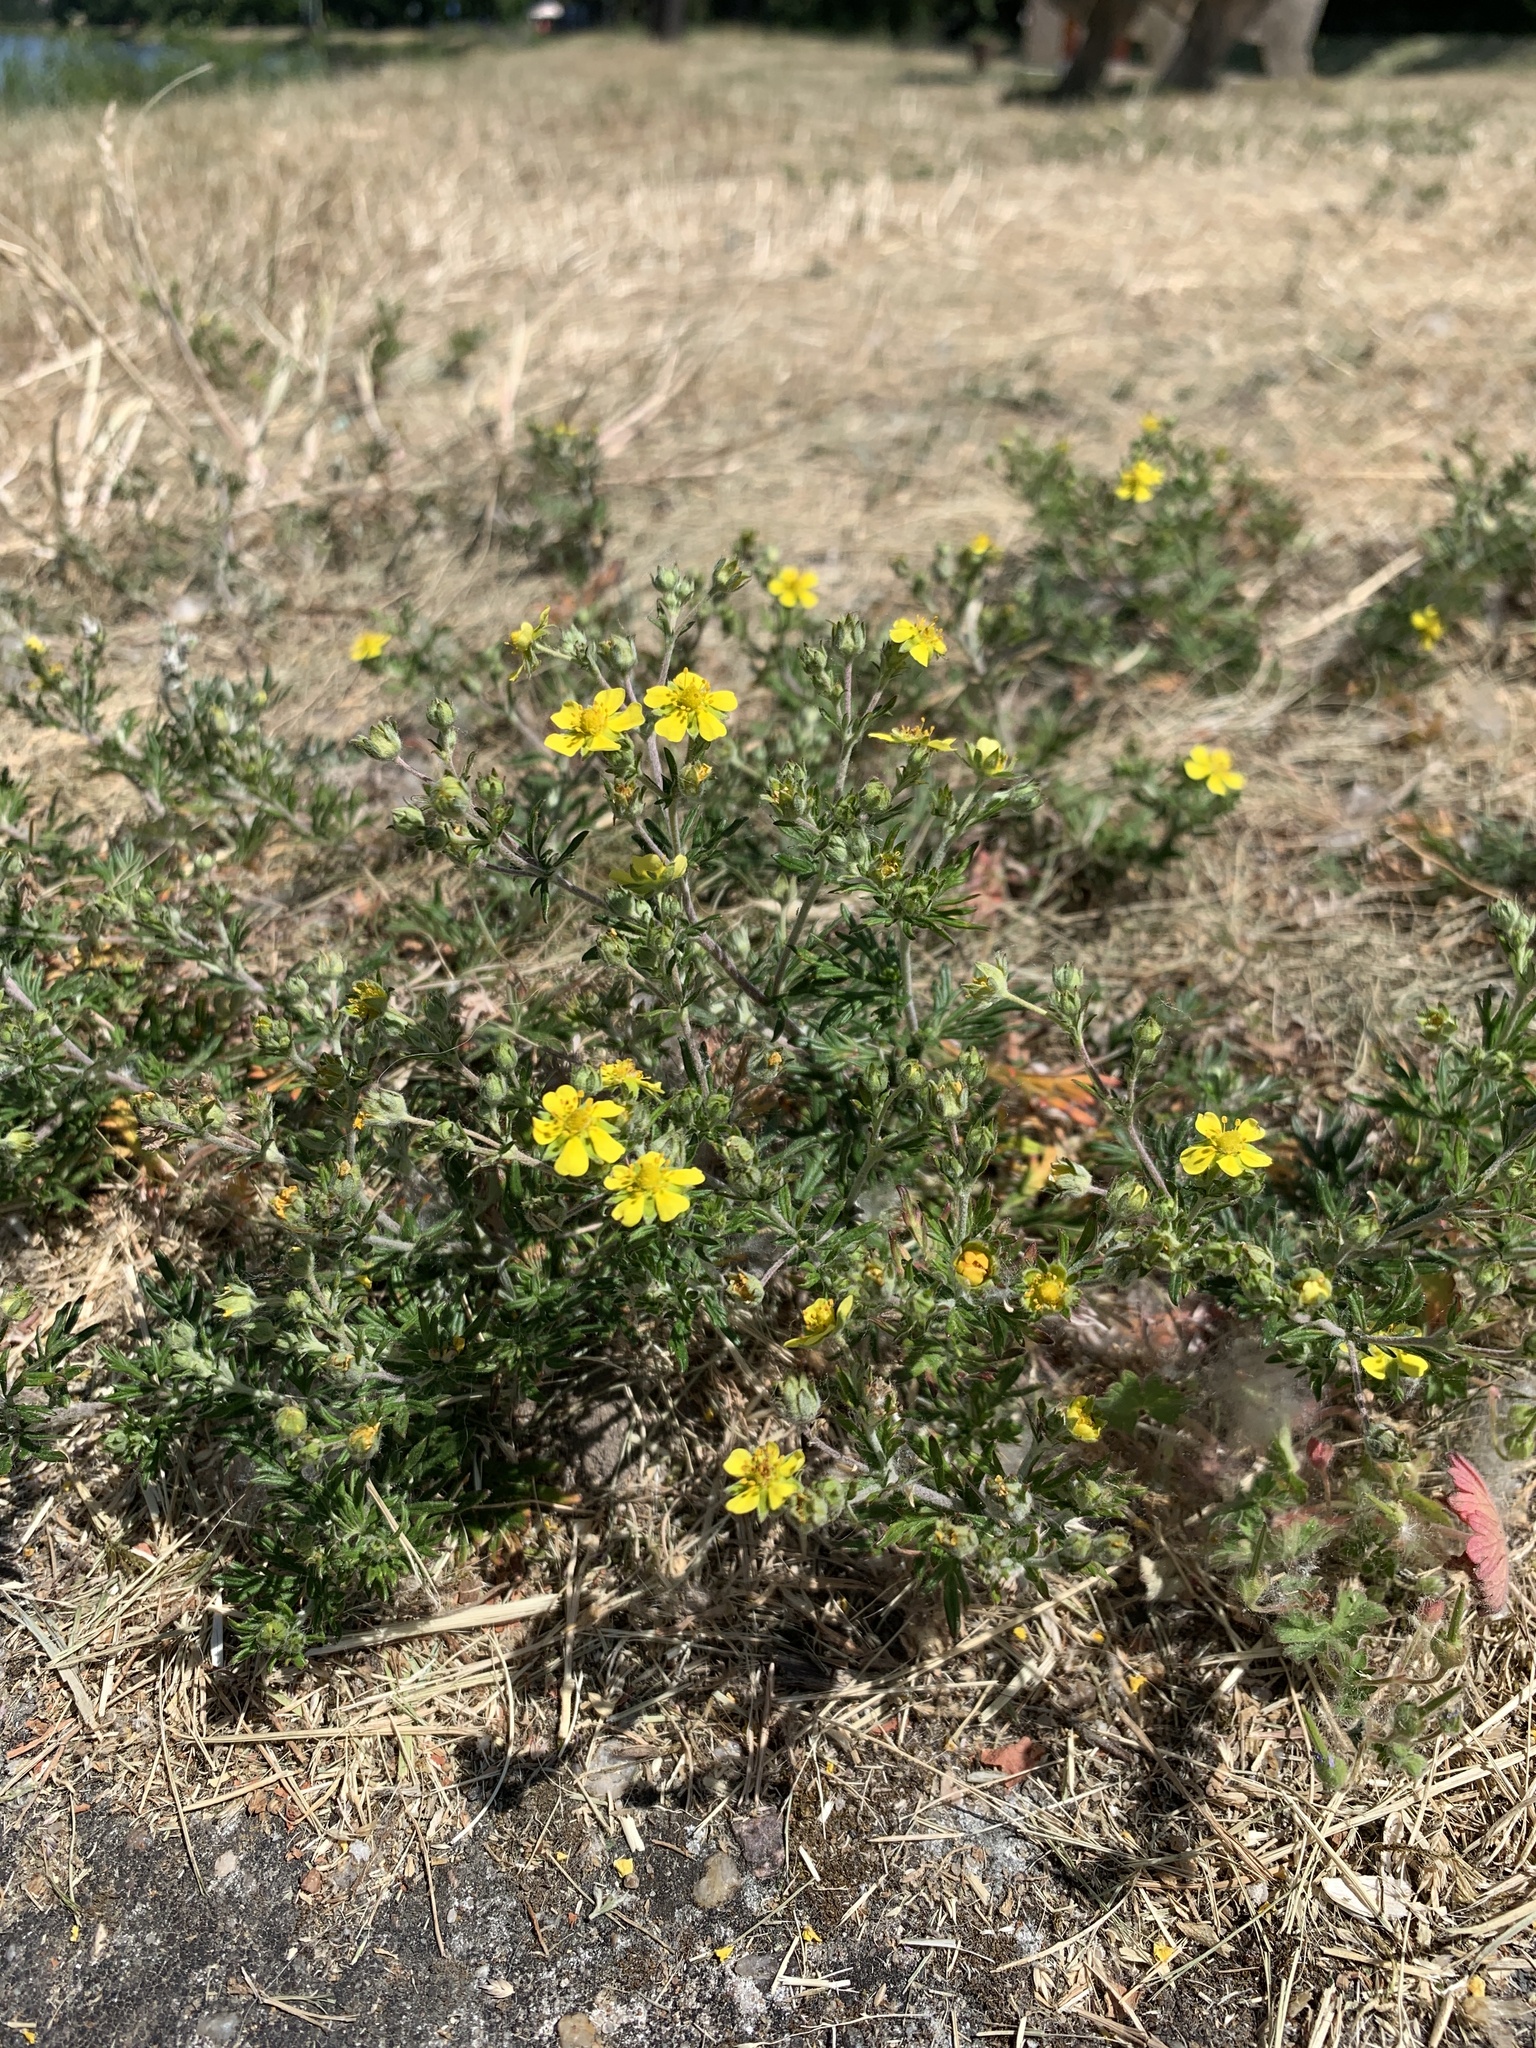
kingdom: Plantae
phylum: Tracheophyta
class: Magnoliopsida
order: Rosales
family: Rosaceae
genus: Potentilla
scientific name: Potentilla argentea
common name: Hoary cinquefoil
